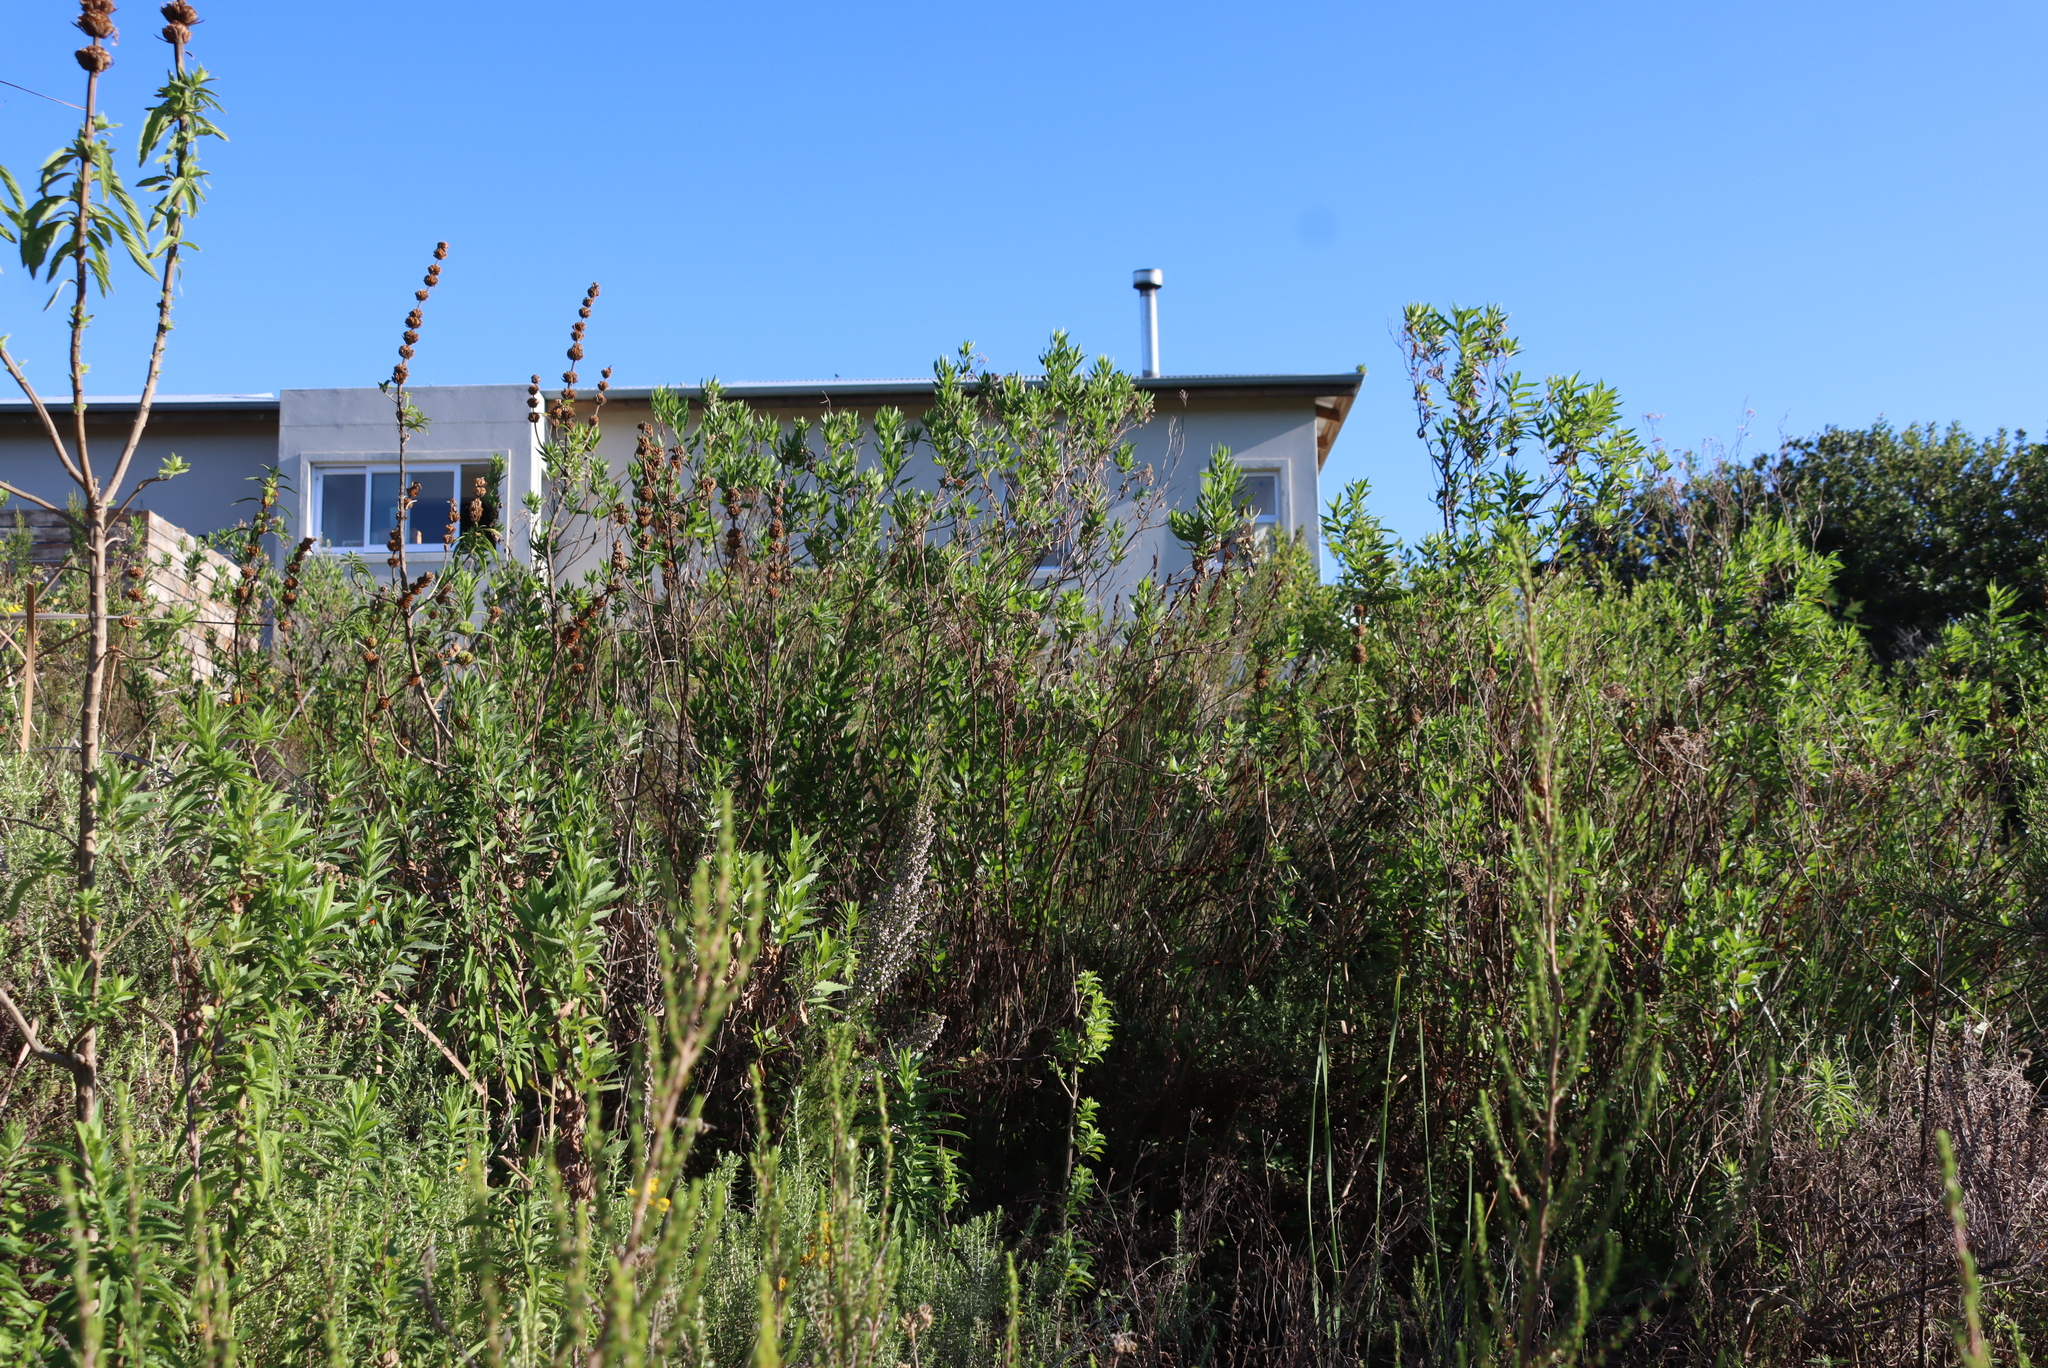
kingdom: Plantae
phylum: Tracheophyta
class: Magnoliopsida
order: Asterales
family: Asteraceae
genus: Nidorella
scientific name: Nidorella ivifolia
